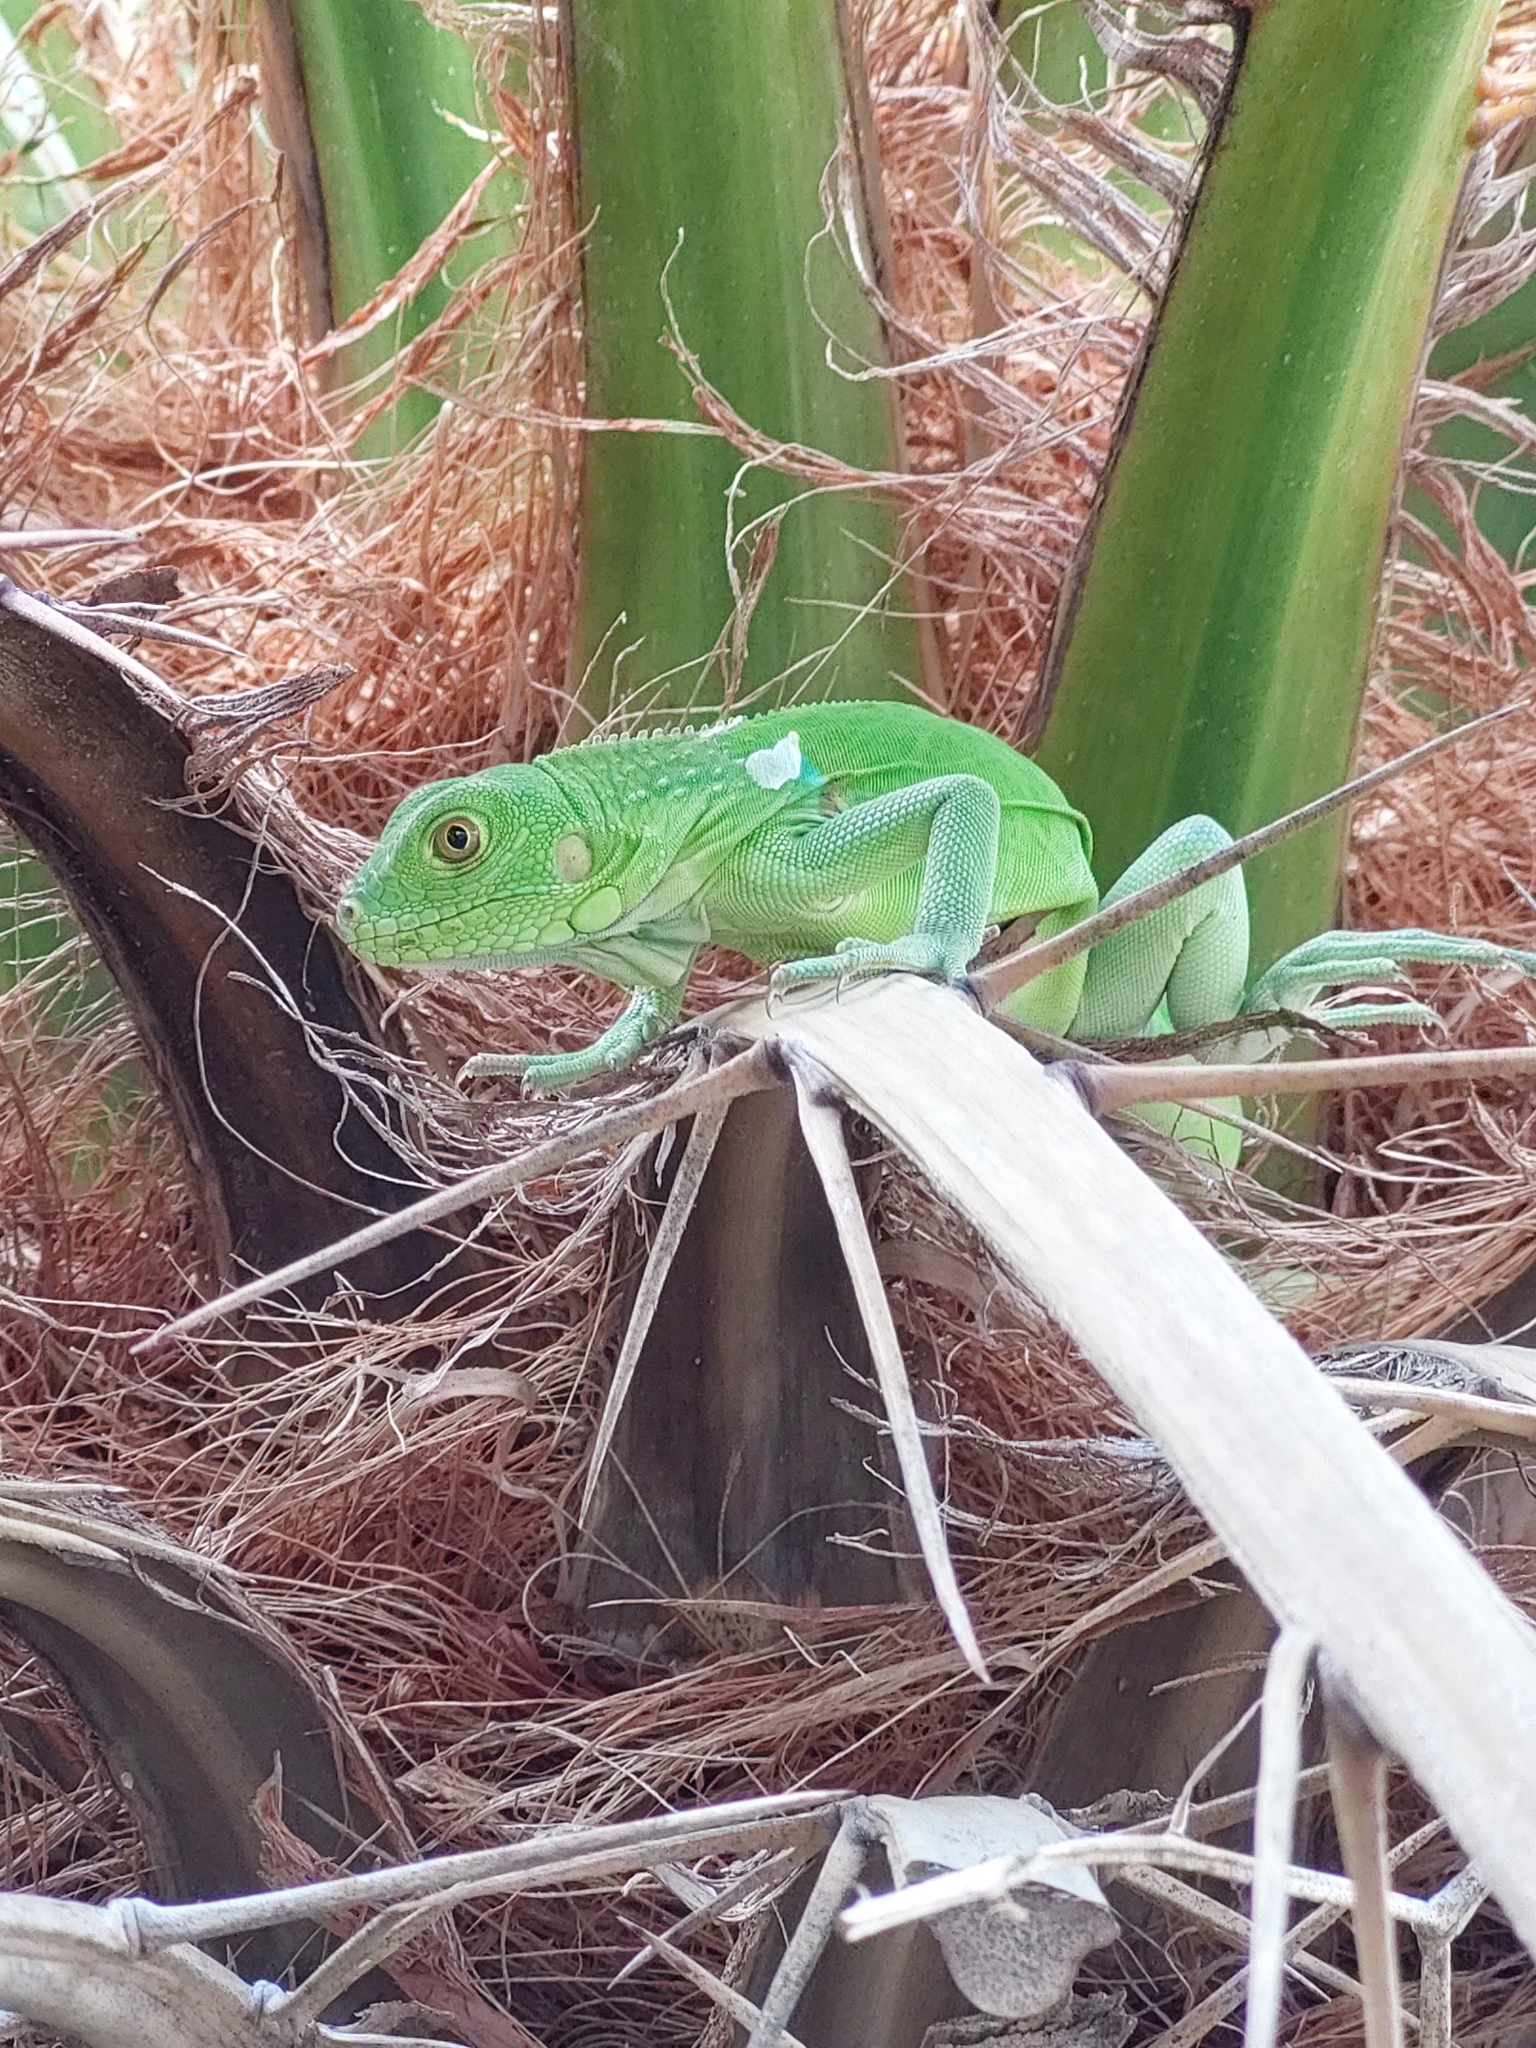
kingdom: Animalia
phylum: Chordata
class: Squamata
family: Iguanidae
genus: Iguana
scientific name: Iguana iguana
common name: Green iguana
